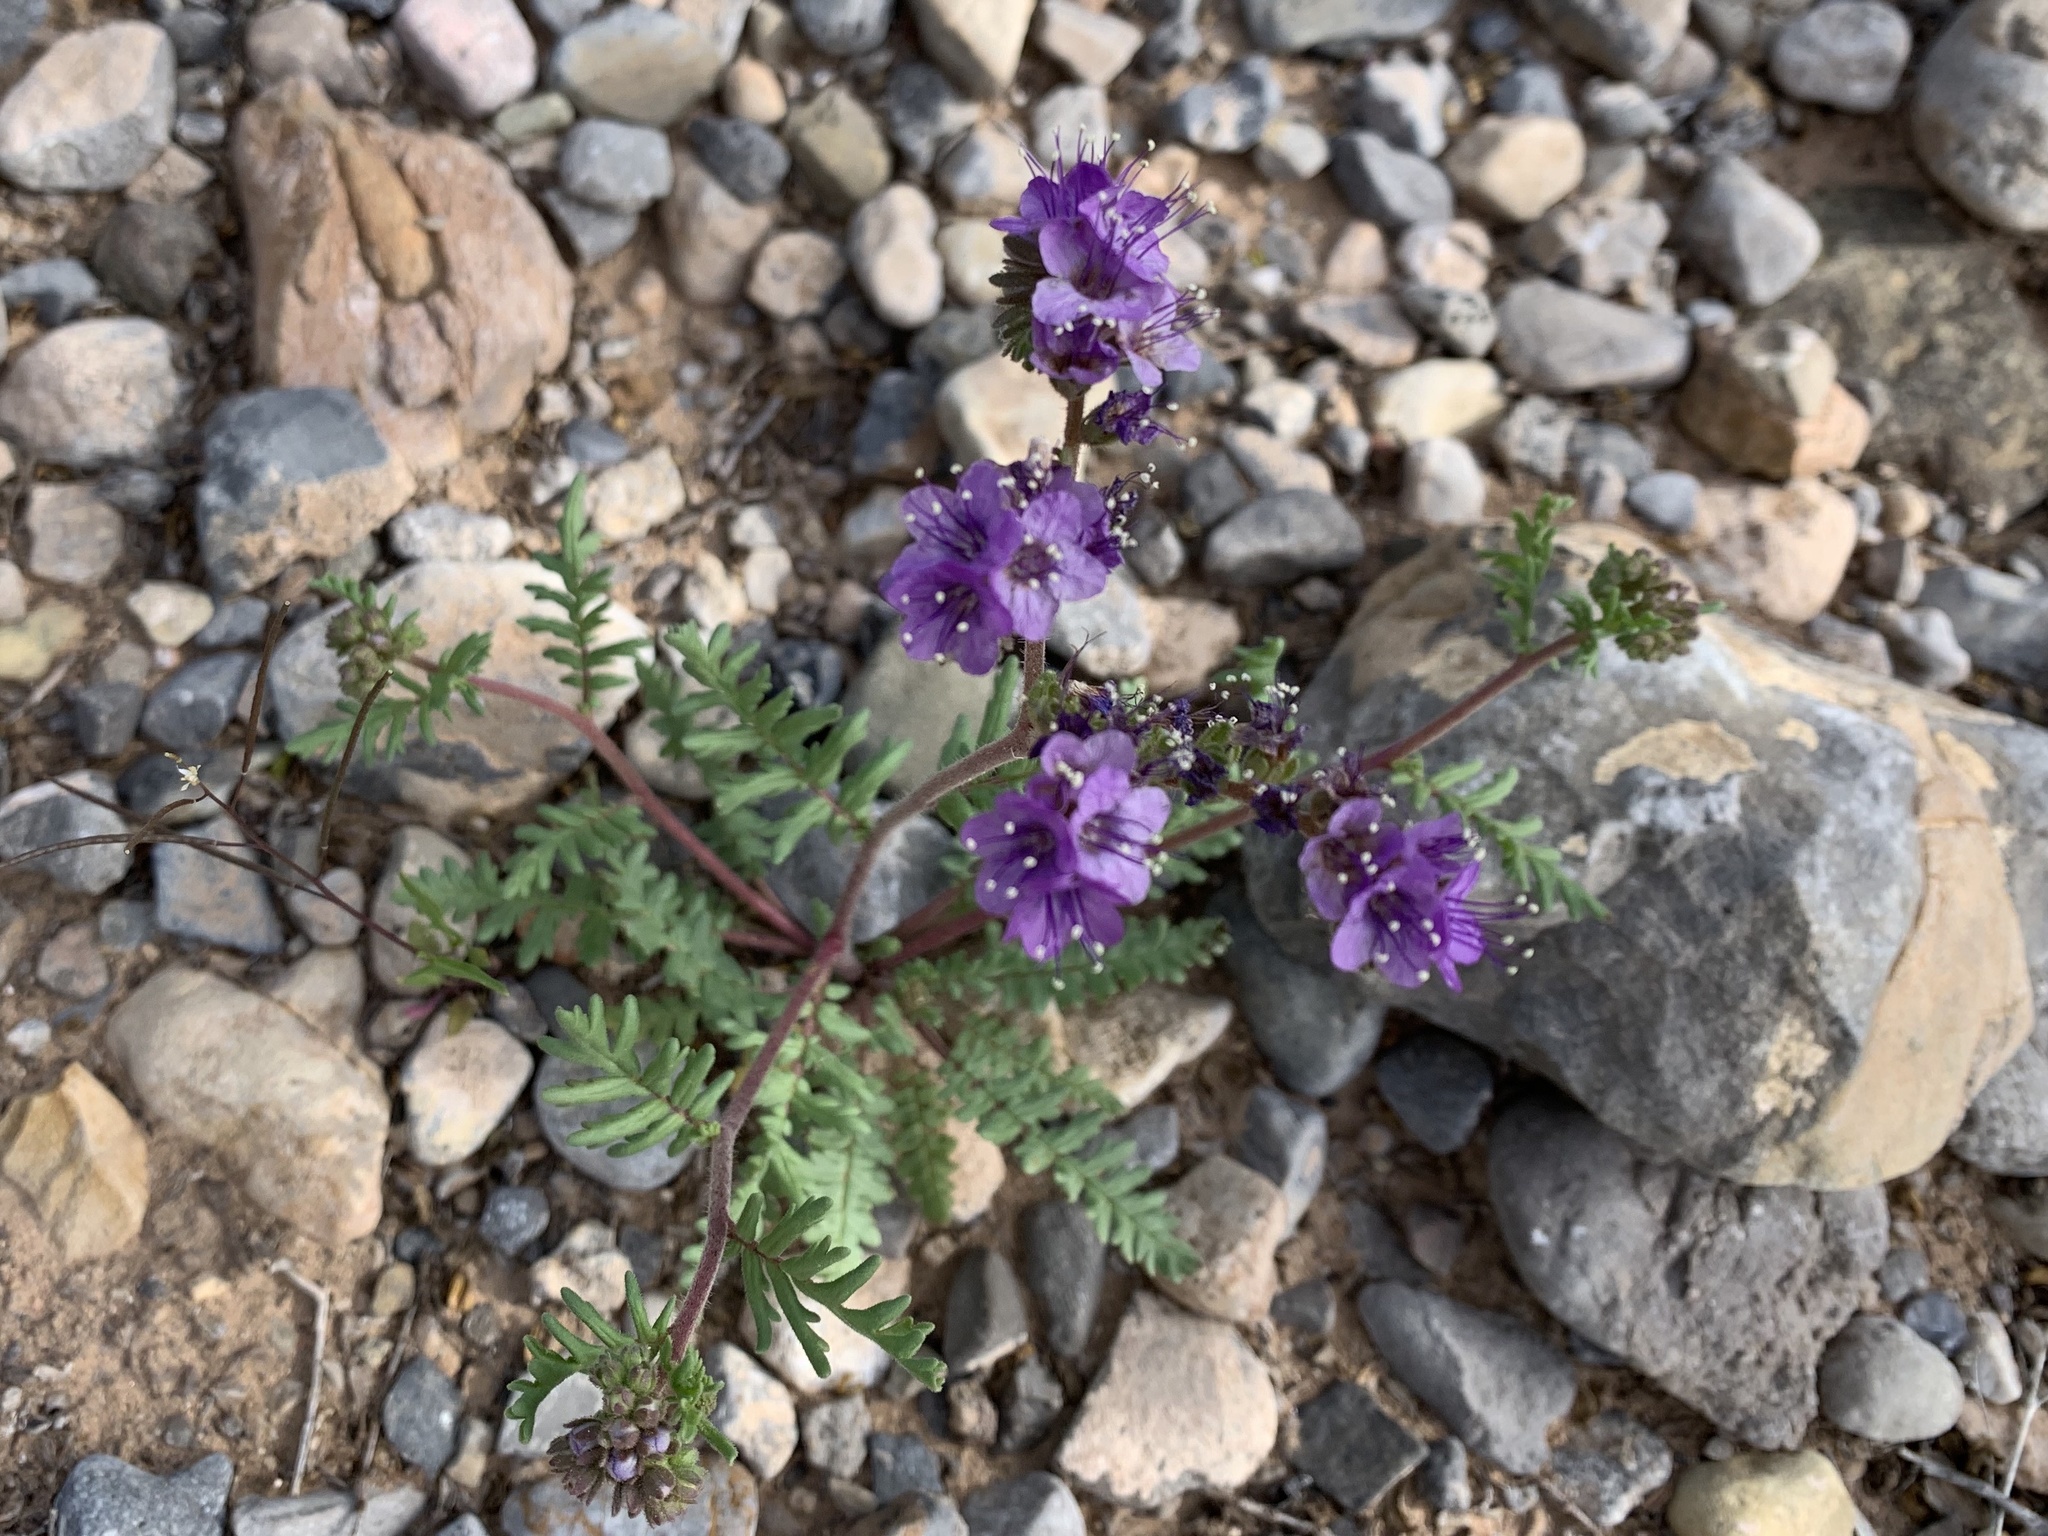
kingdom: Plantae
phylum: Tracheophyta
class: Magnoliopsida
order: Boraginales
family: Hydrophyllaceae
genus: Phacelia
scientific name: Phacelia popei
